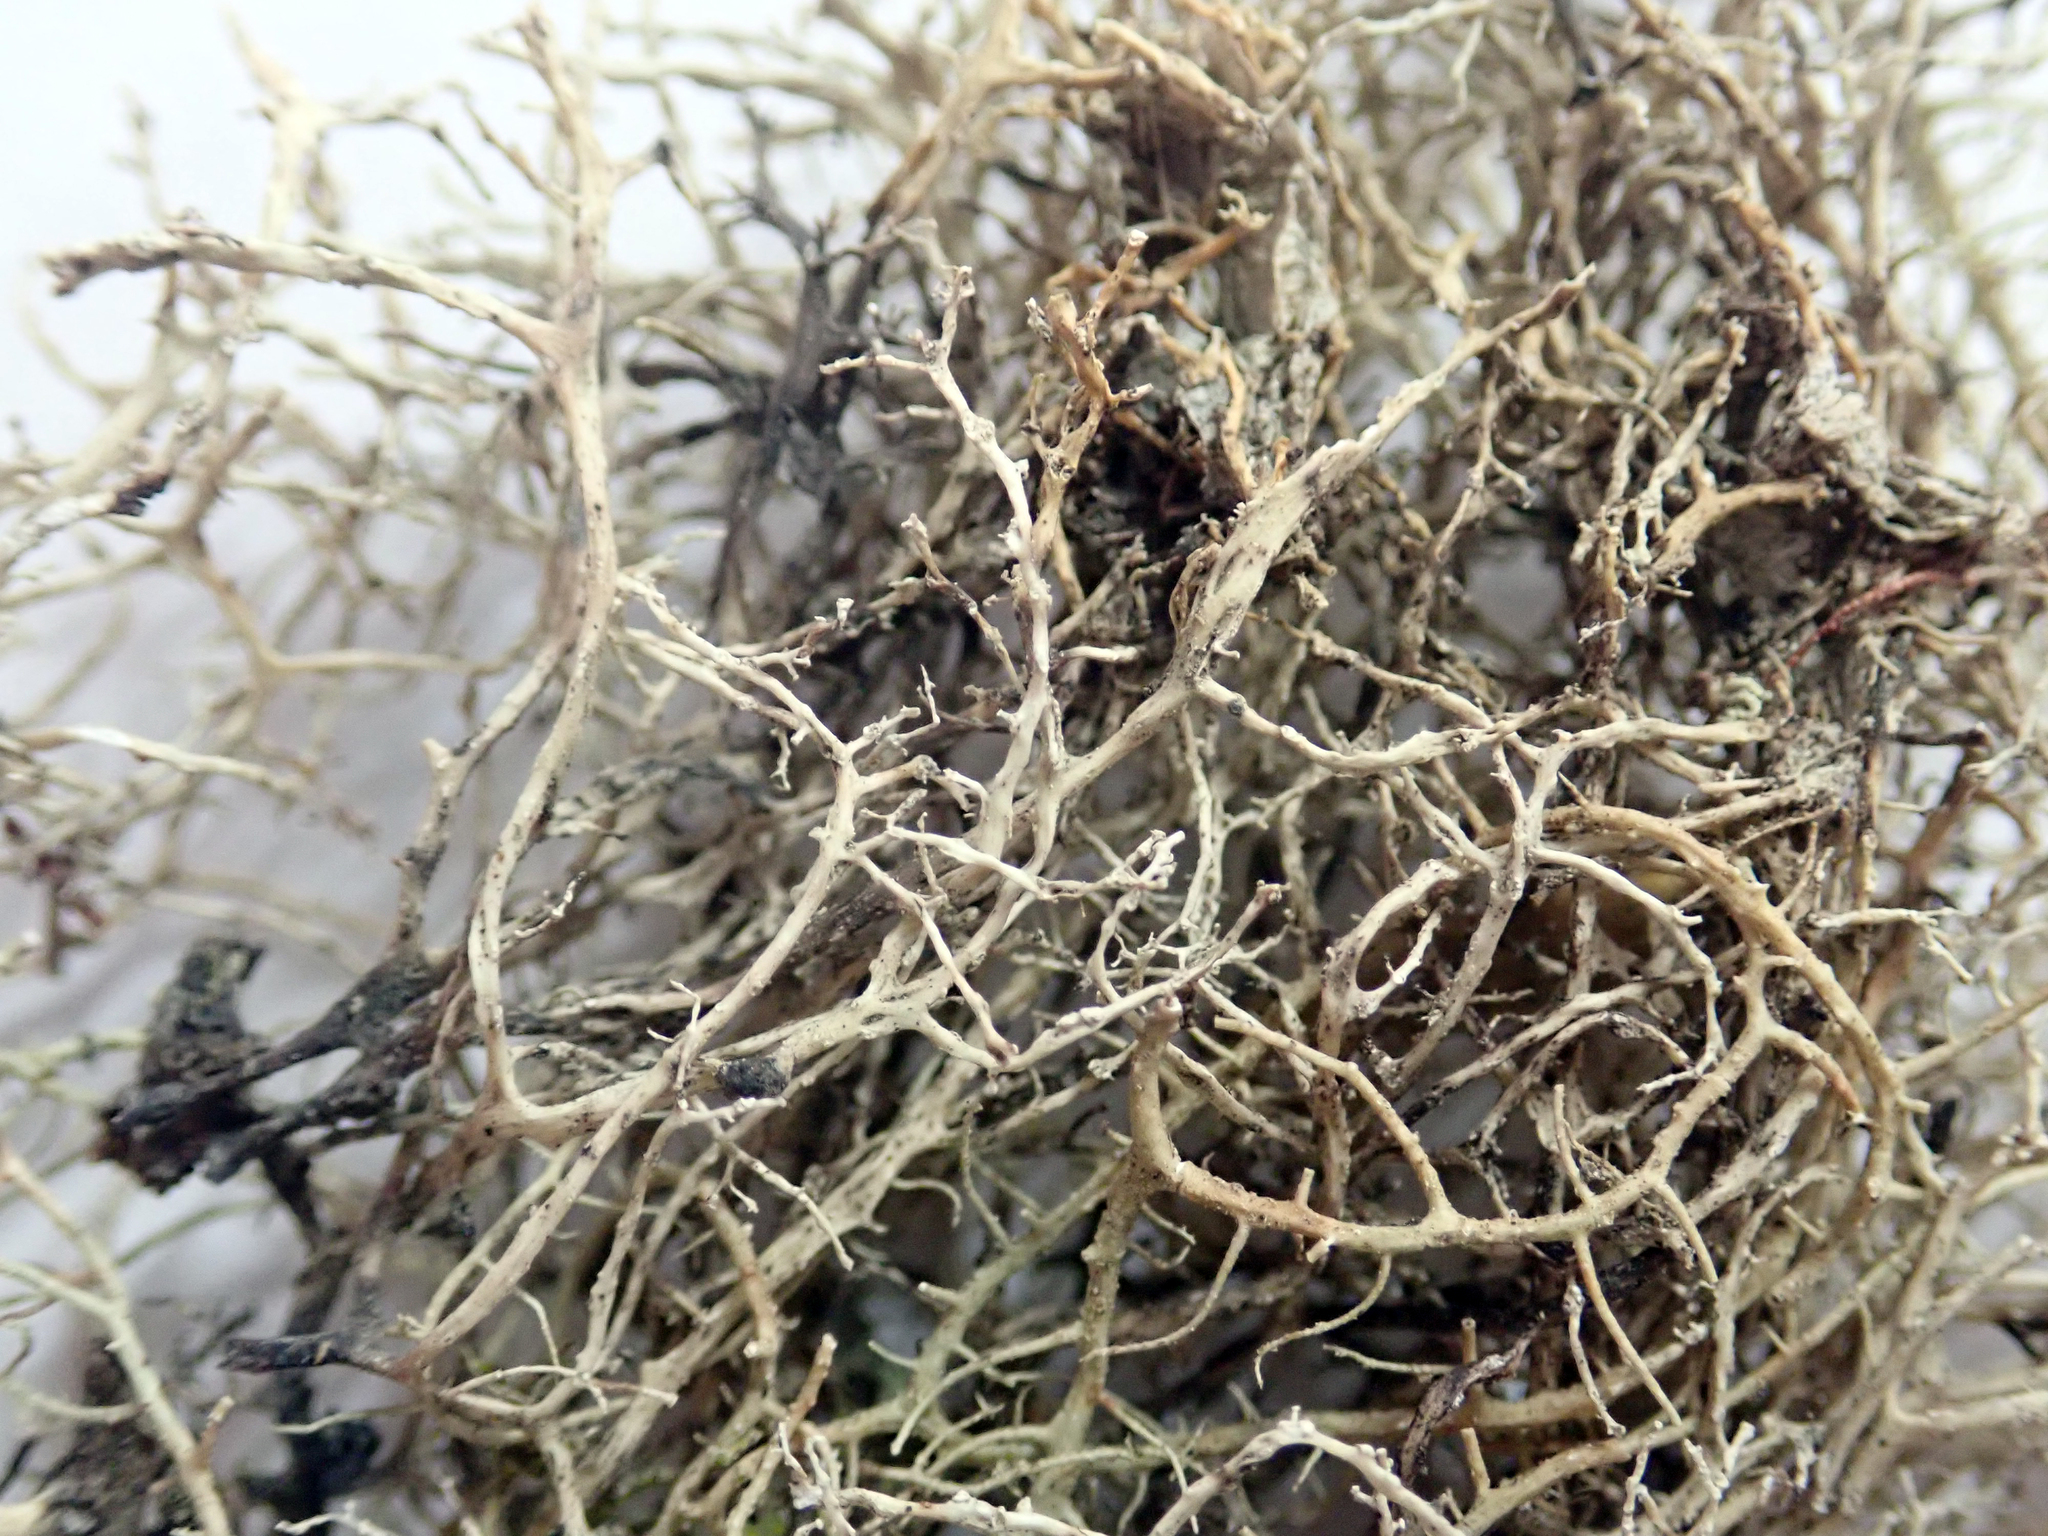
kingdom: Fungi
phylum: Ascomycota
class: Lecanoromycetes
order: Lecanorales
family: Ramalinaceae
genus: Ramalina
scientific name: Ramalina peruviana
